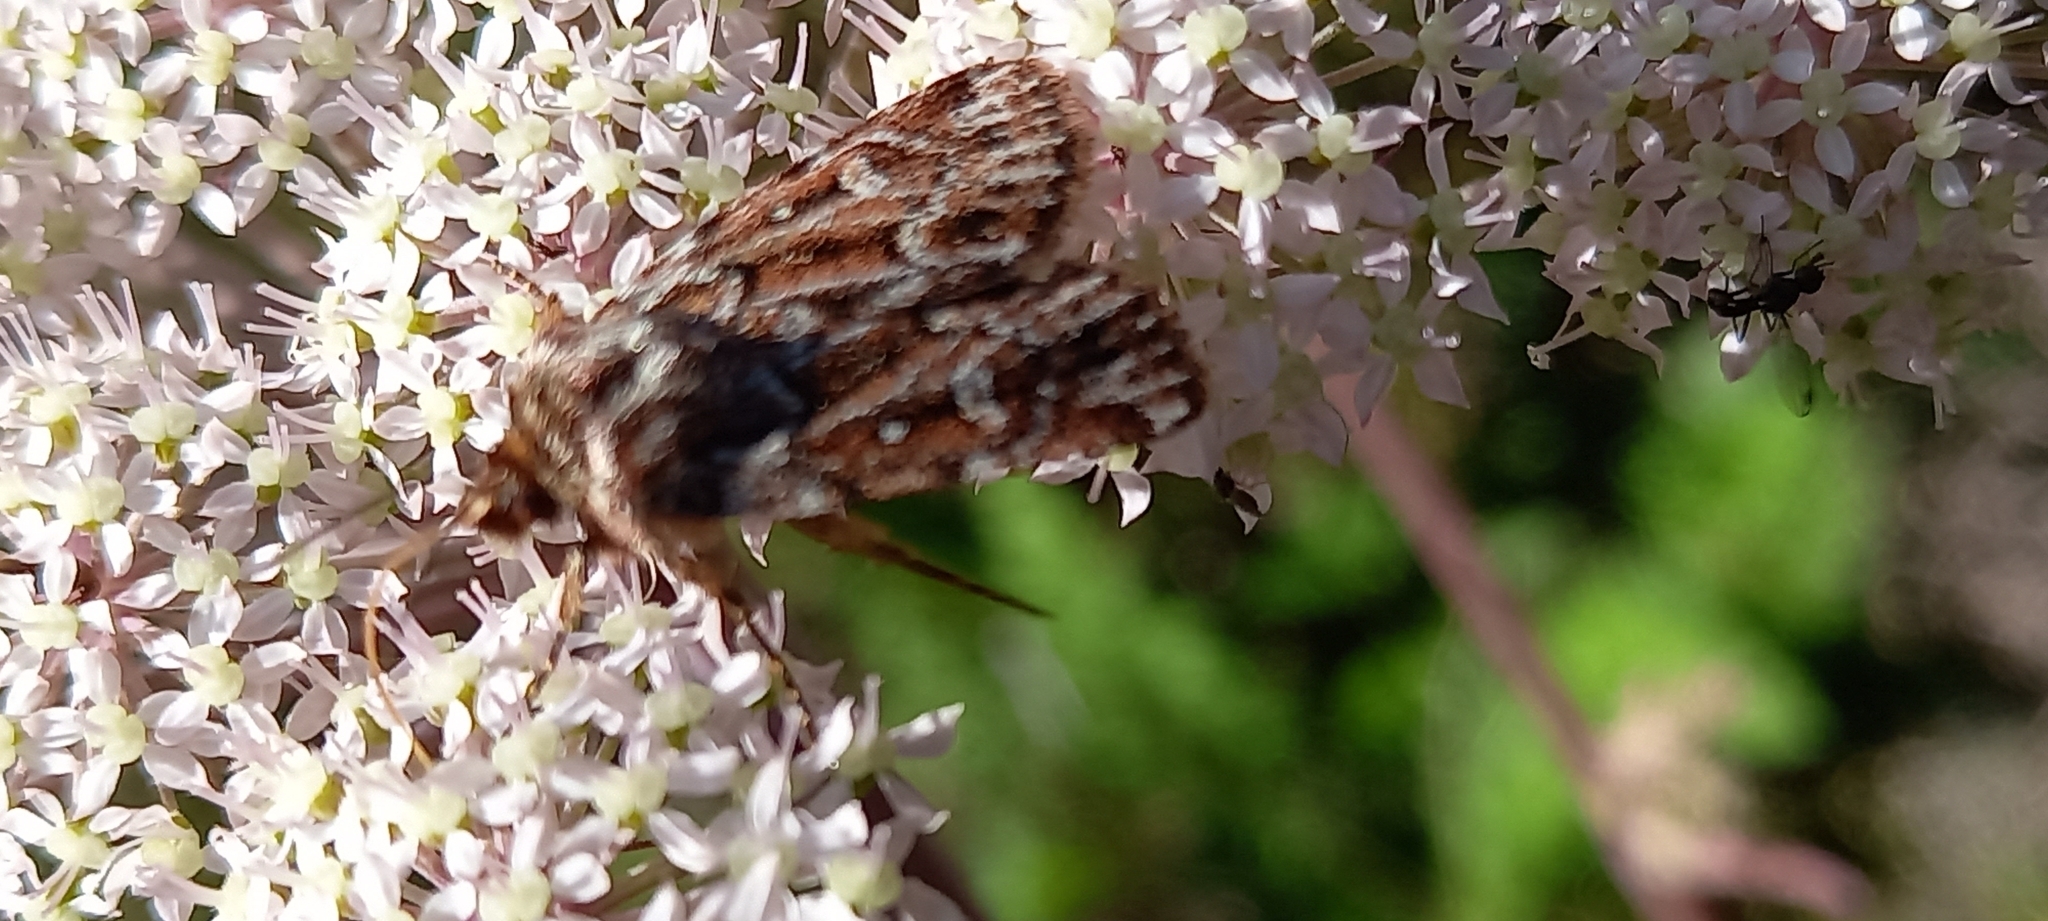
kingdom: Animalia
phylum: Arthropoda
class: Insecta
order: Lepidoptera
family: Noctuidae
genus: Lycophotia
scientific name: Lycophotia porphyrea
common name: True lover's knot
